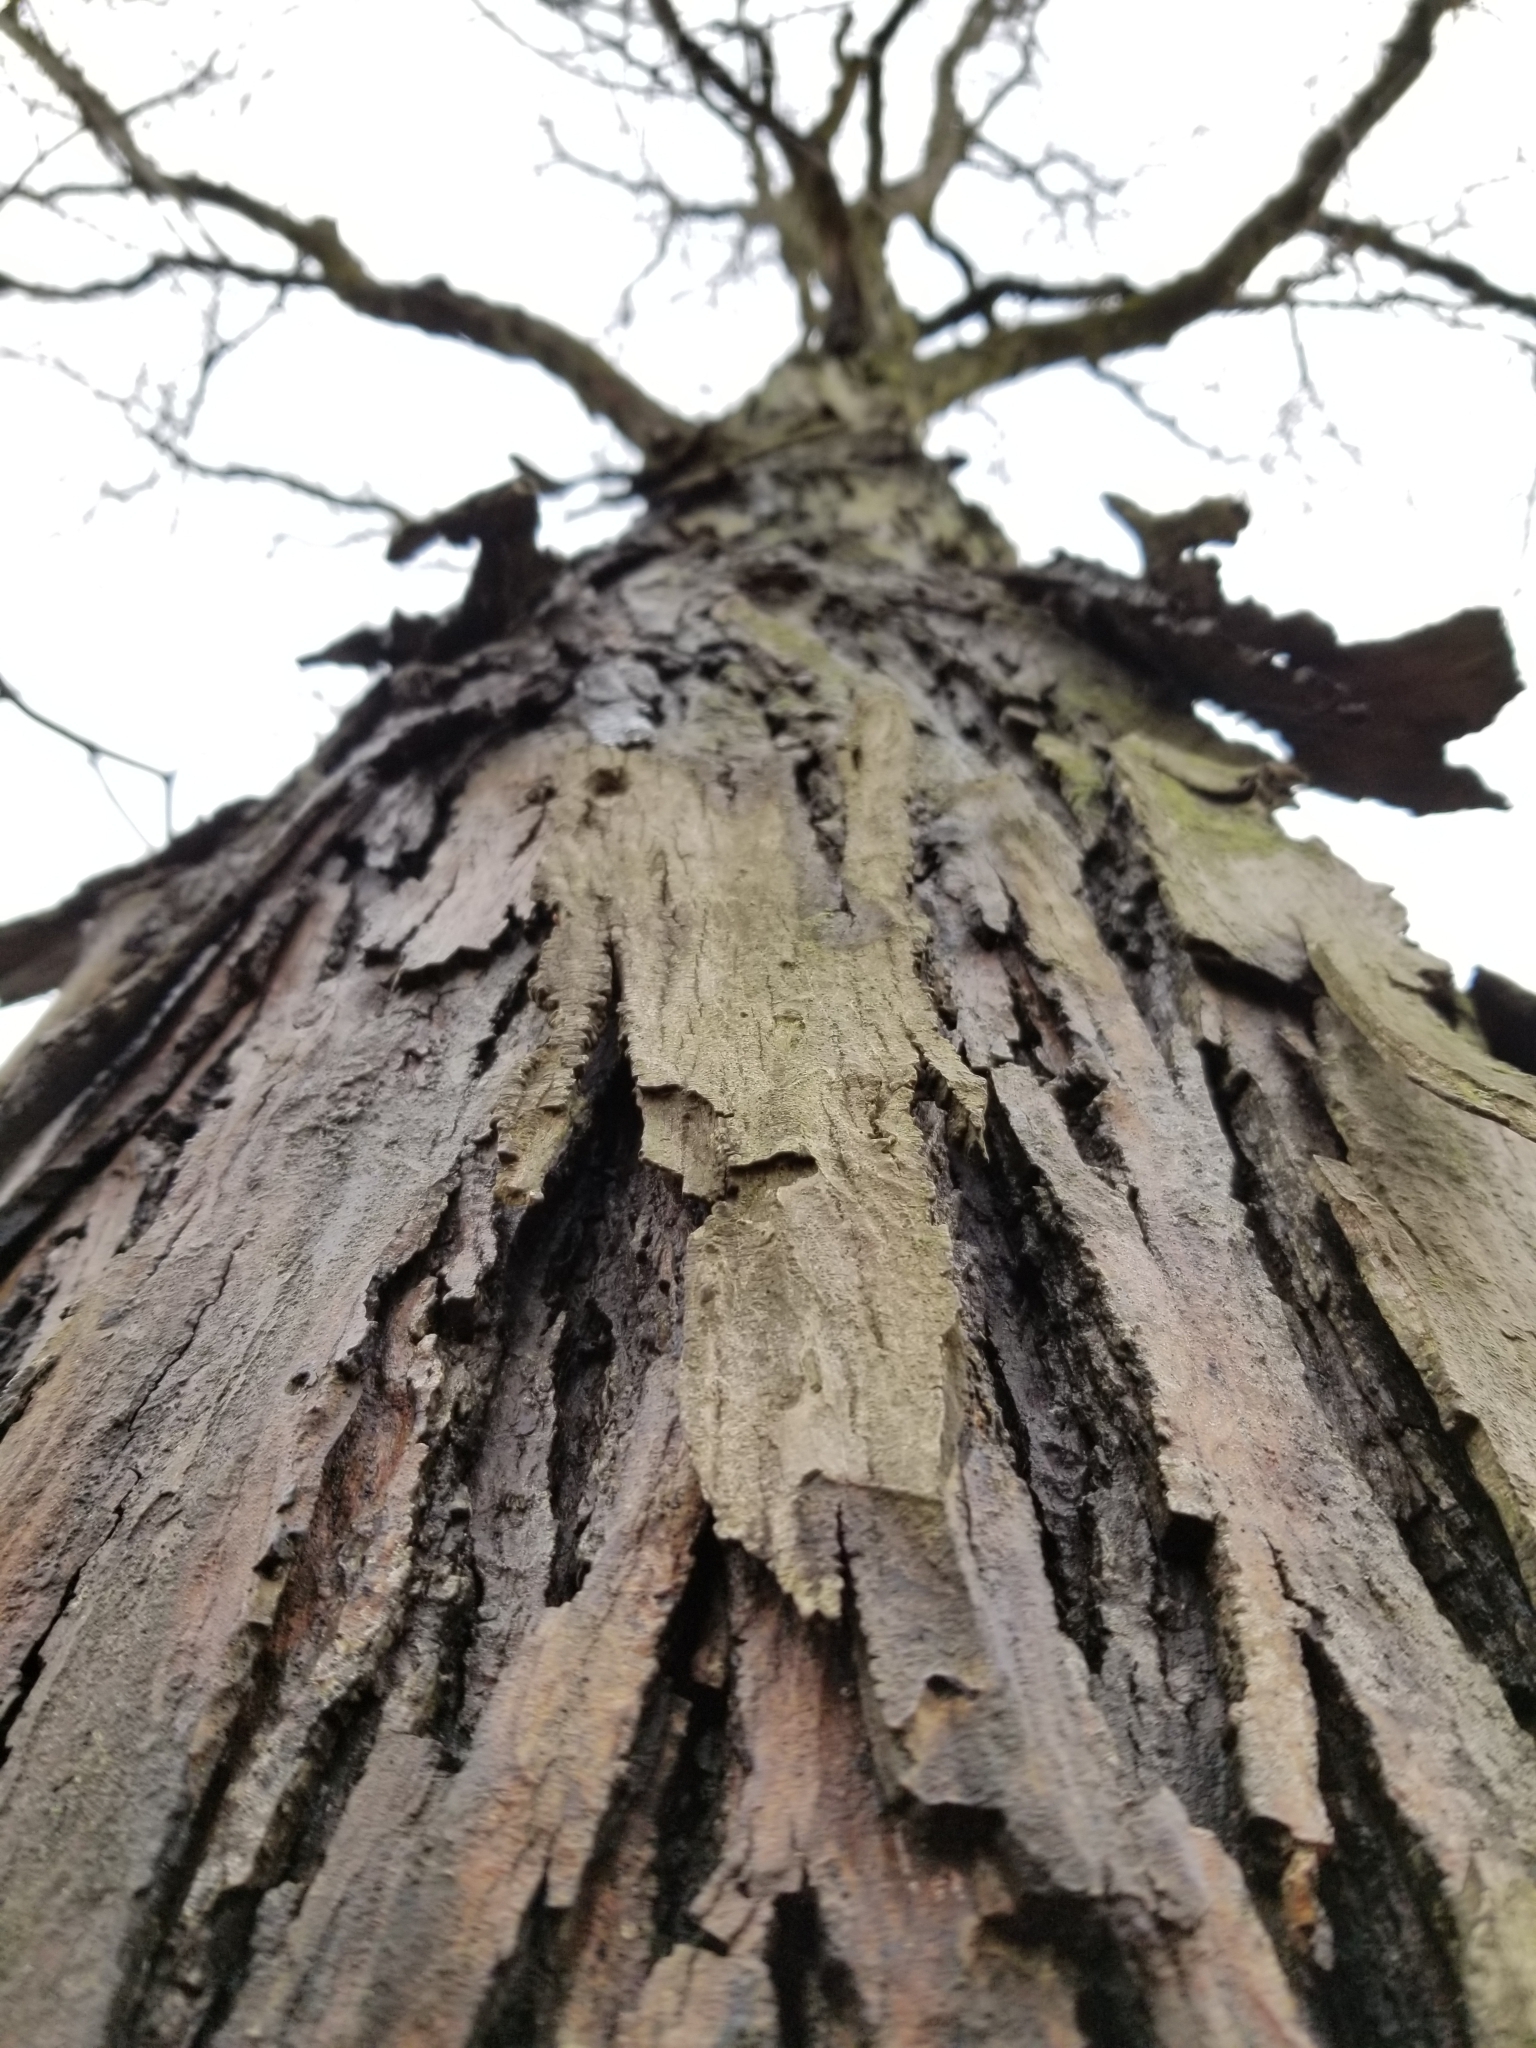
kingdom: Plantae
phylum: Tracheophyta
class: Magnoliopsida
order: Fagales
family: Juglandaceae
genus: Carya
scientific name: Carya ovata
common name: Shagbark hickory
